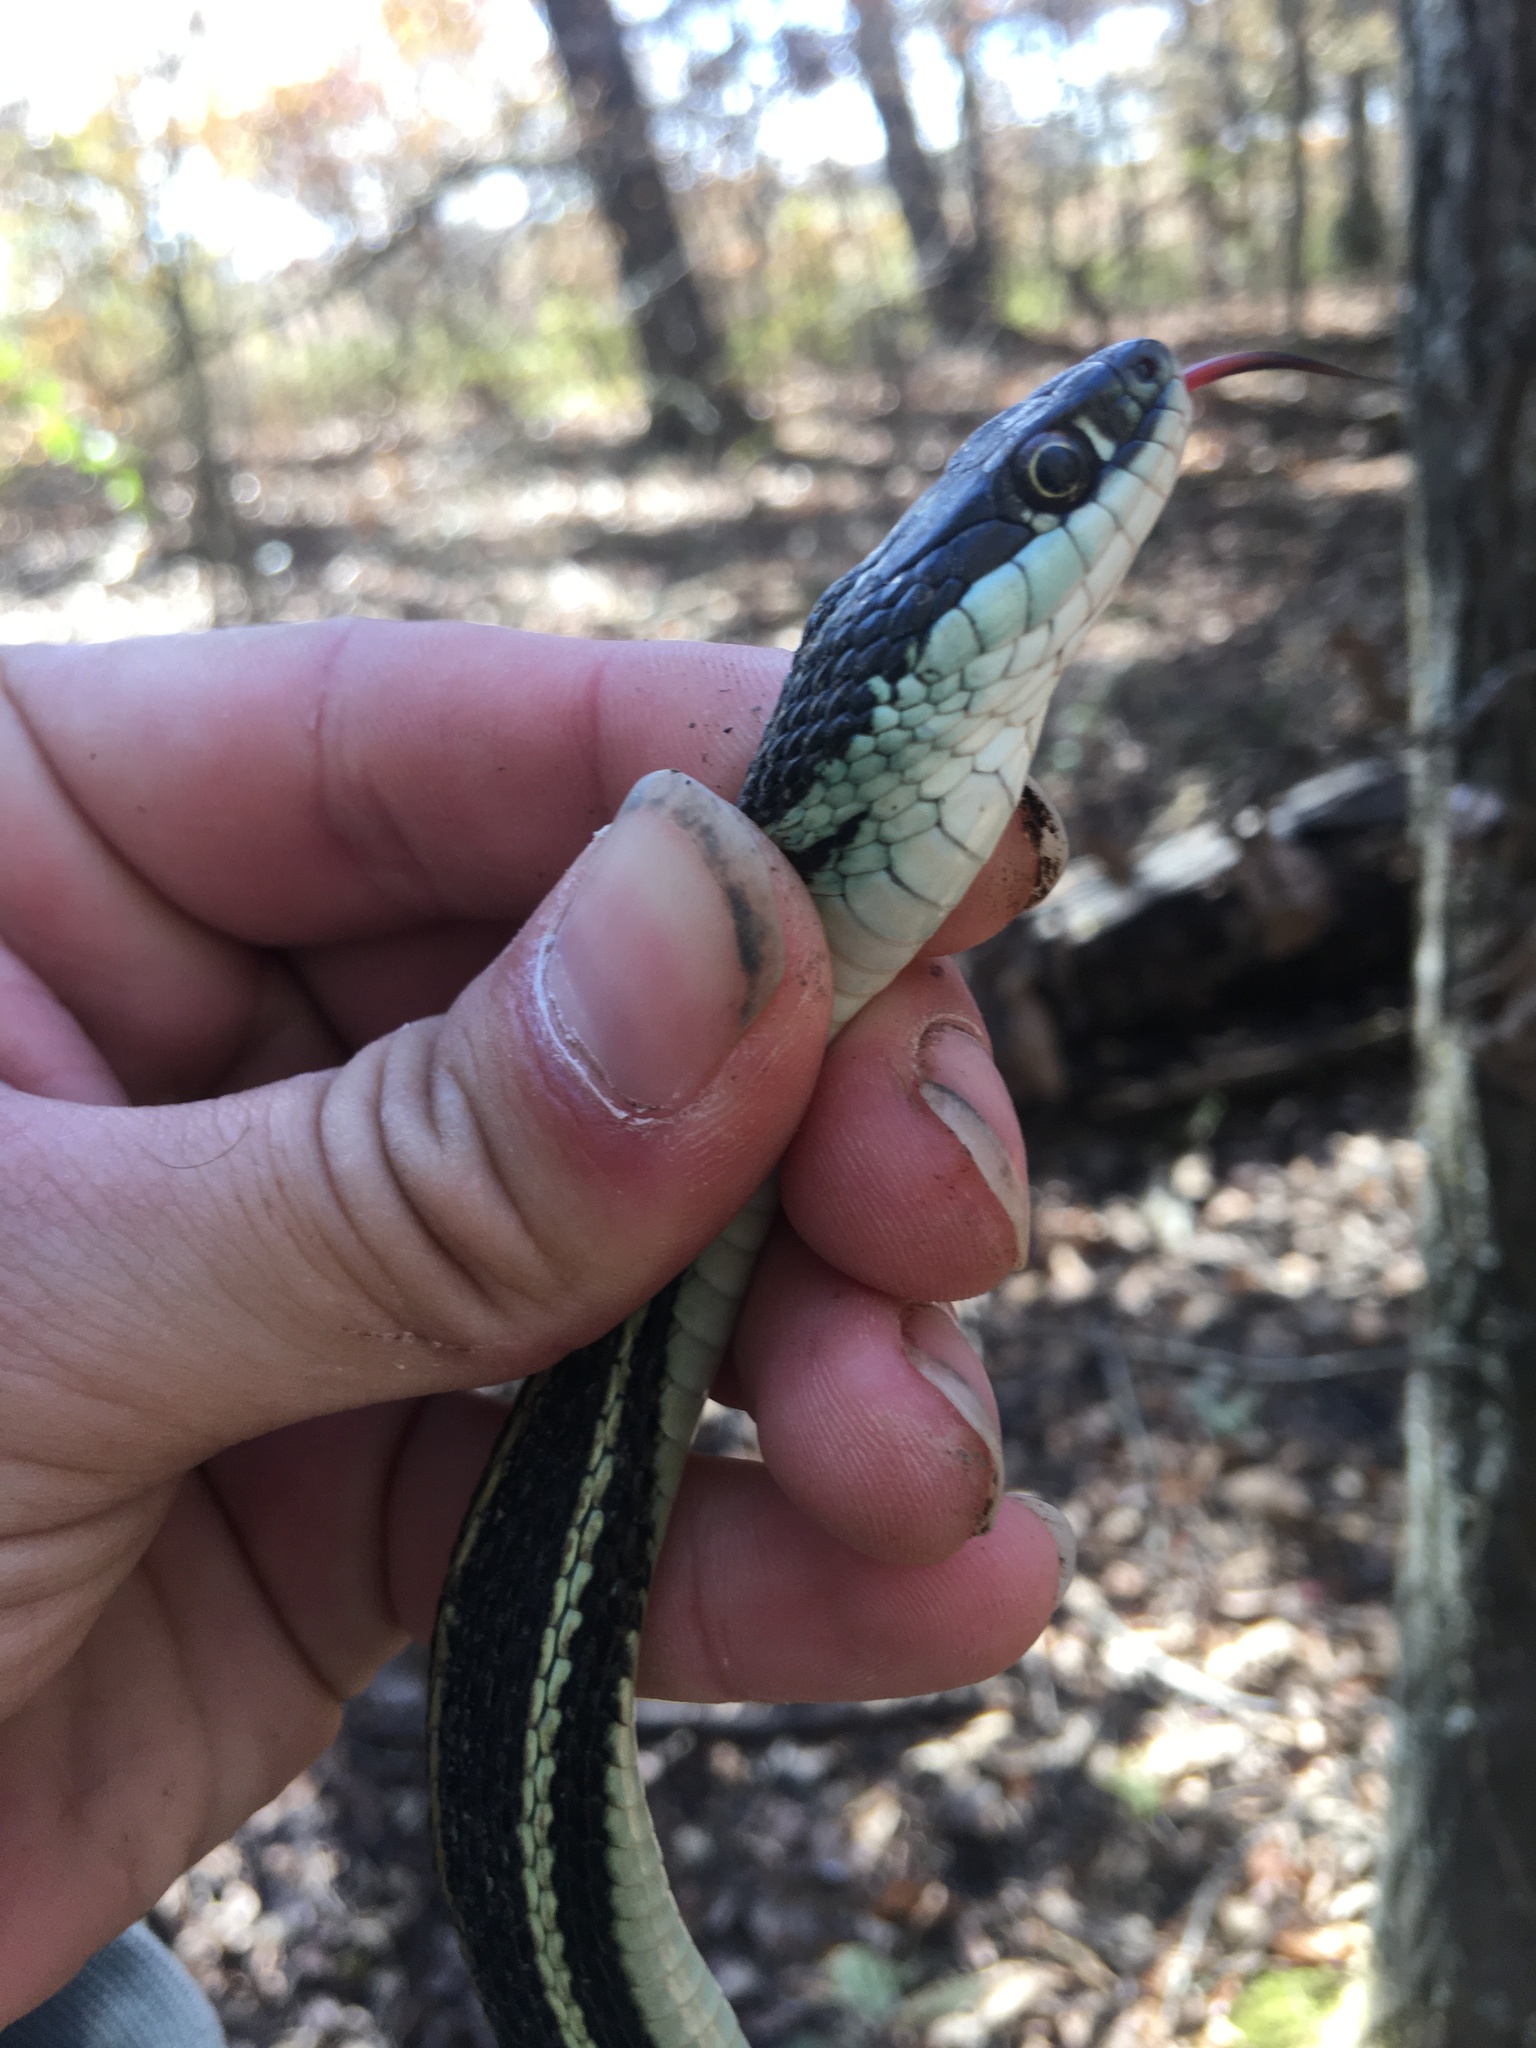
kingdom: Animalia
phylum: Chordata
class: Squamata
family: Colubridae
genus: Thamnophis
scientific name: Thamnophis proximus
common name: Western ribbon snake
